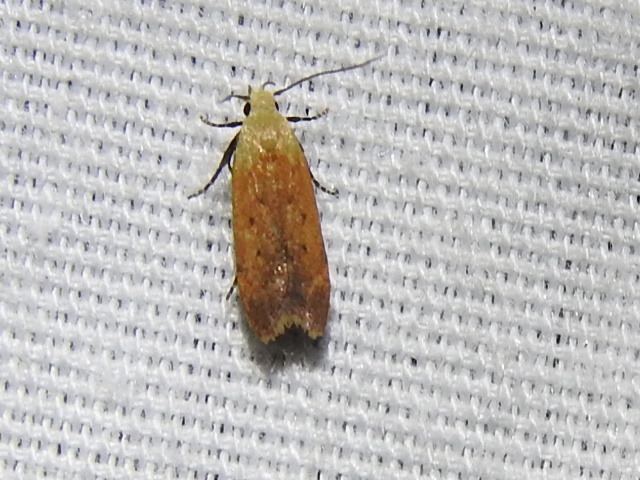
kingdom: Animalia
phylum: Arthropoda
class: Insecta
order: Lepidoptera
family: Gelechiidae
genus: Anacampsis
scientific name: Anacampsis fullonella
